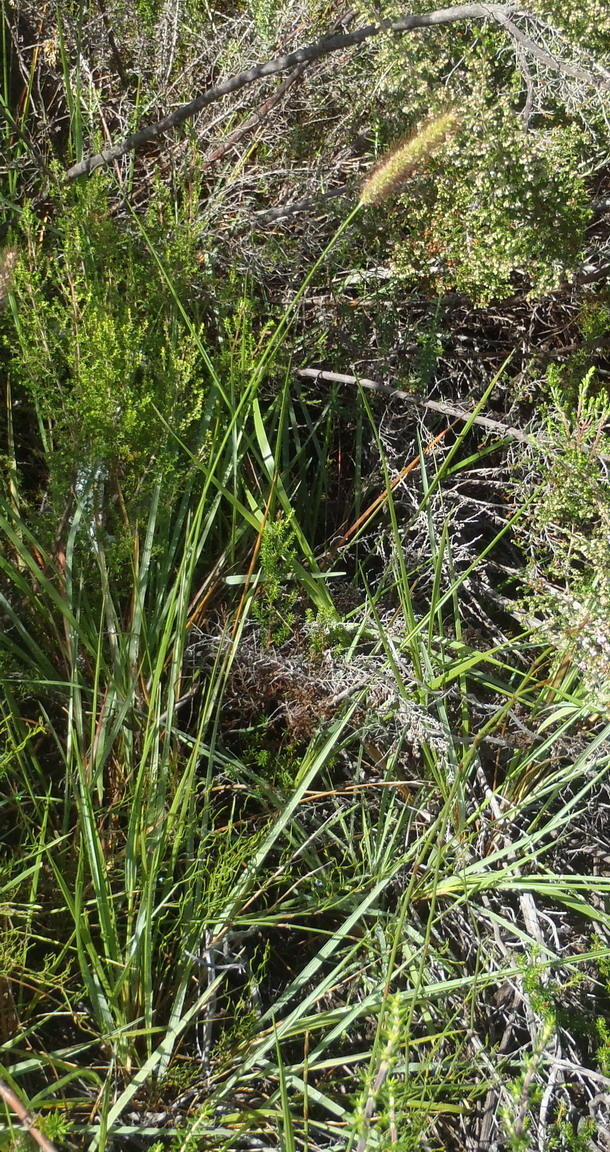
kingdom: Plantae
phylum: Tracheophyta
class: Liliopsida
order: Poales
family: Poaceae
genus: Setaria
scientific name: Setaria sphacelata
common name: African bristlegrass
